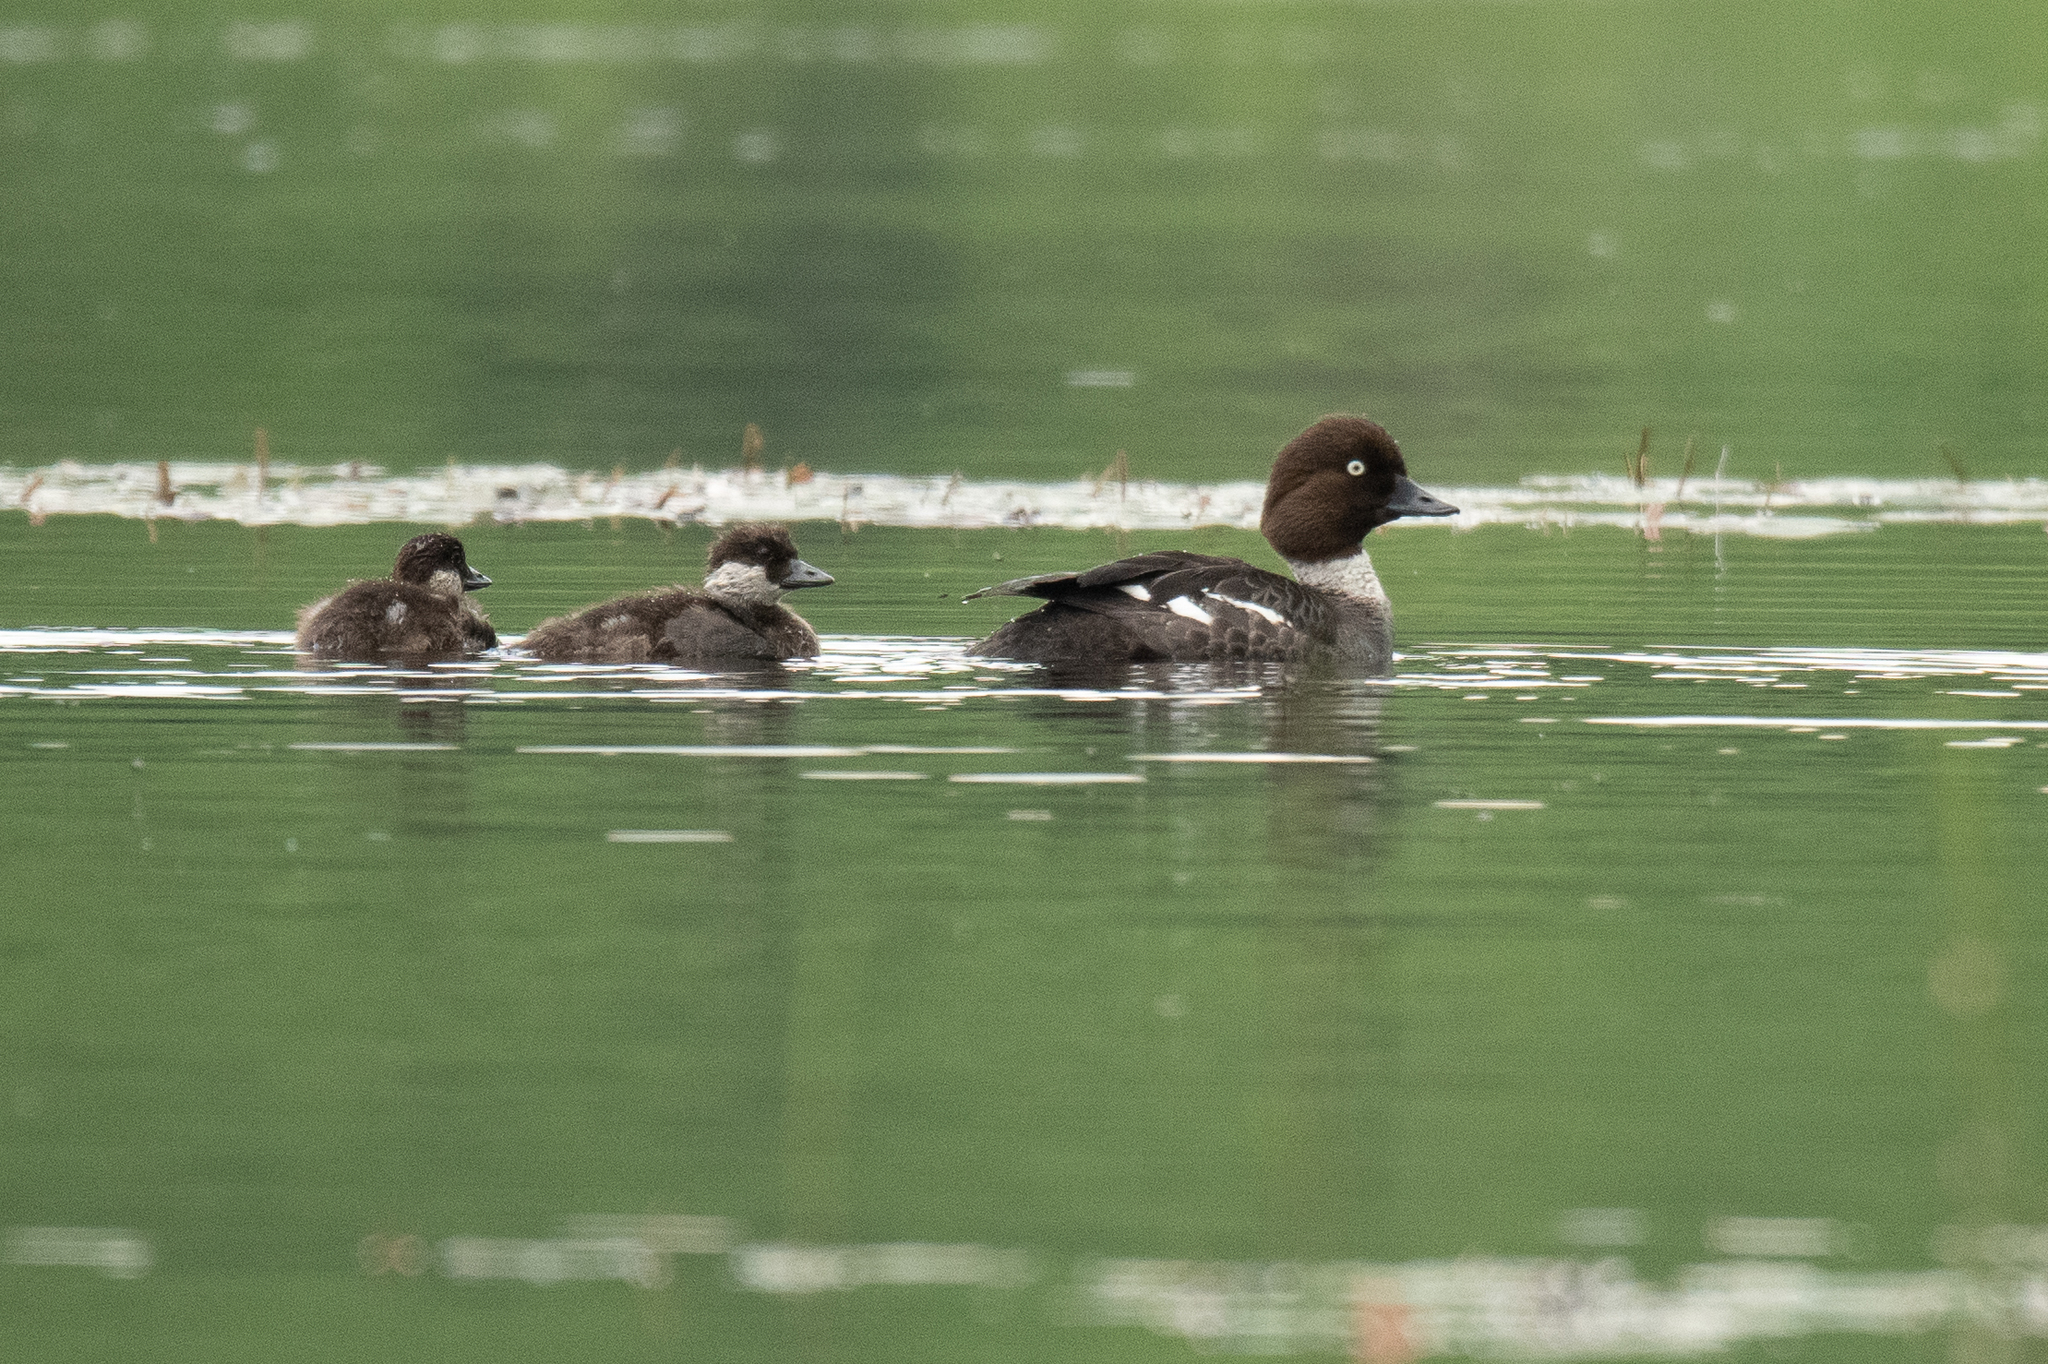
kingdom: Animalia
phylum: Chordata
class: Aves
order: Anseriformes
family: Anatidae
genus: Bucephala
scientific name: Bucephala clangula
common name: Common goldeneye
